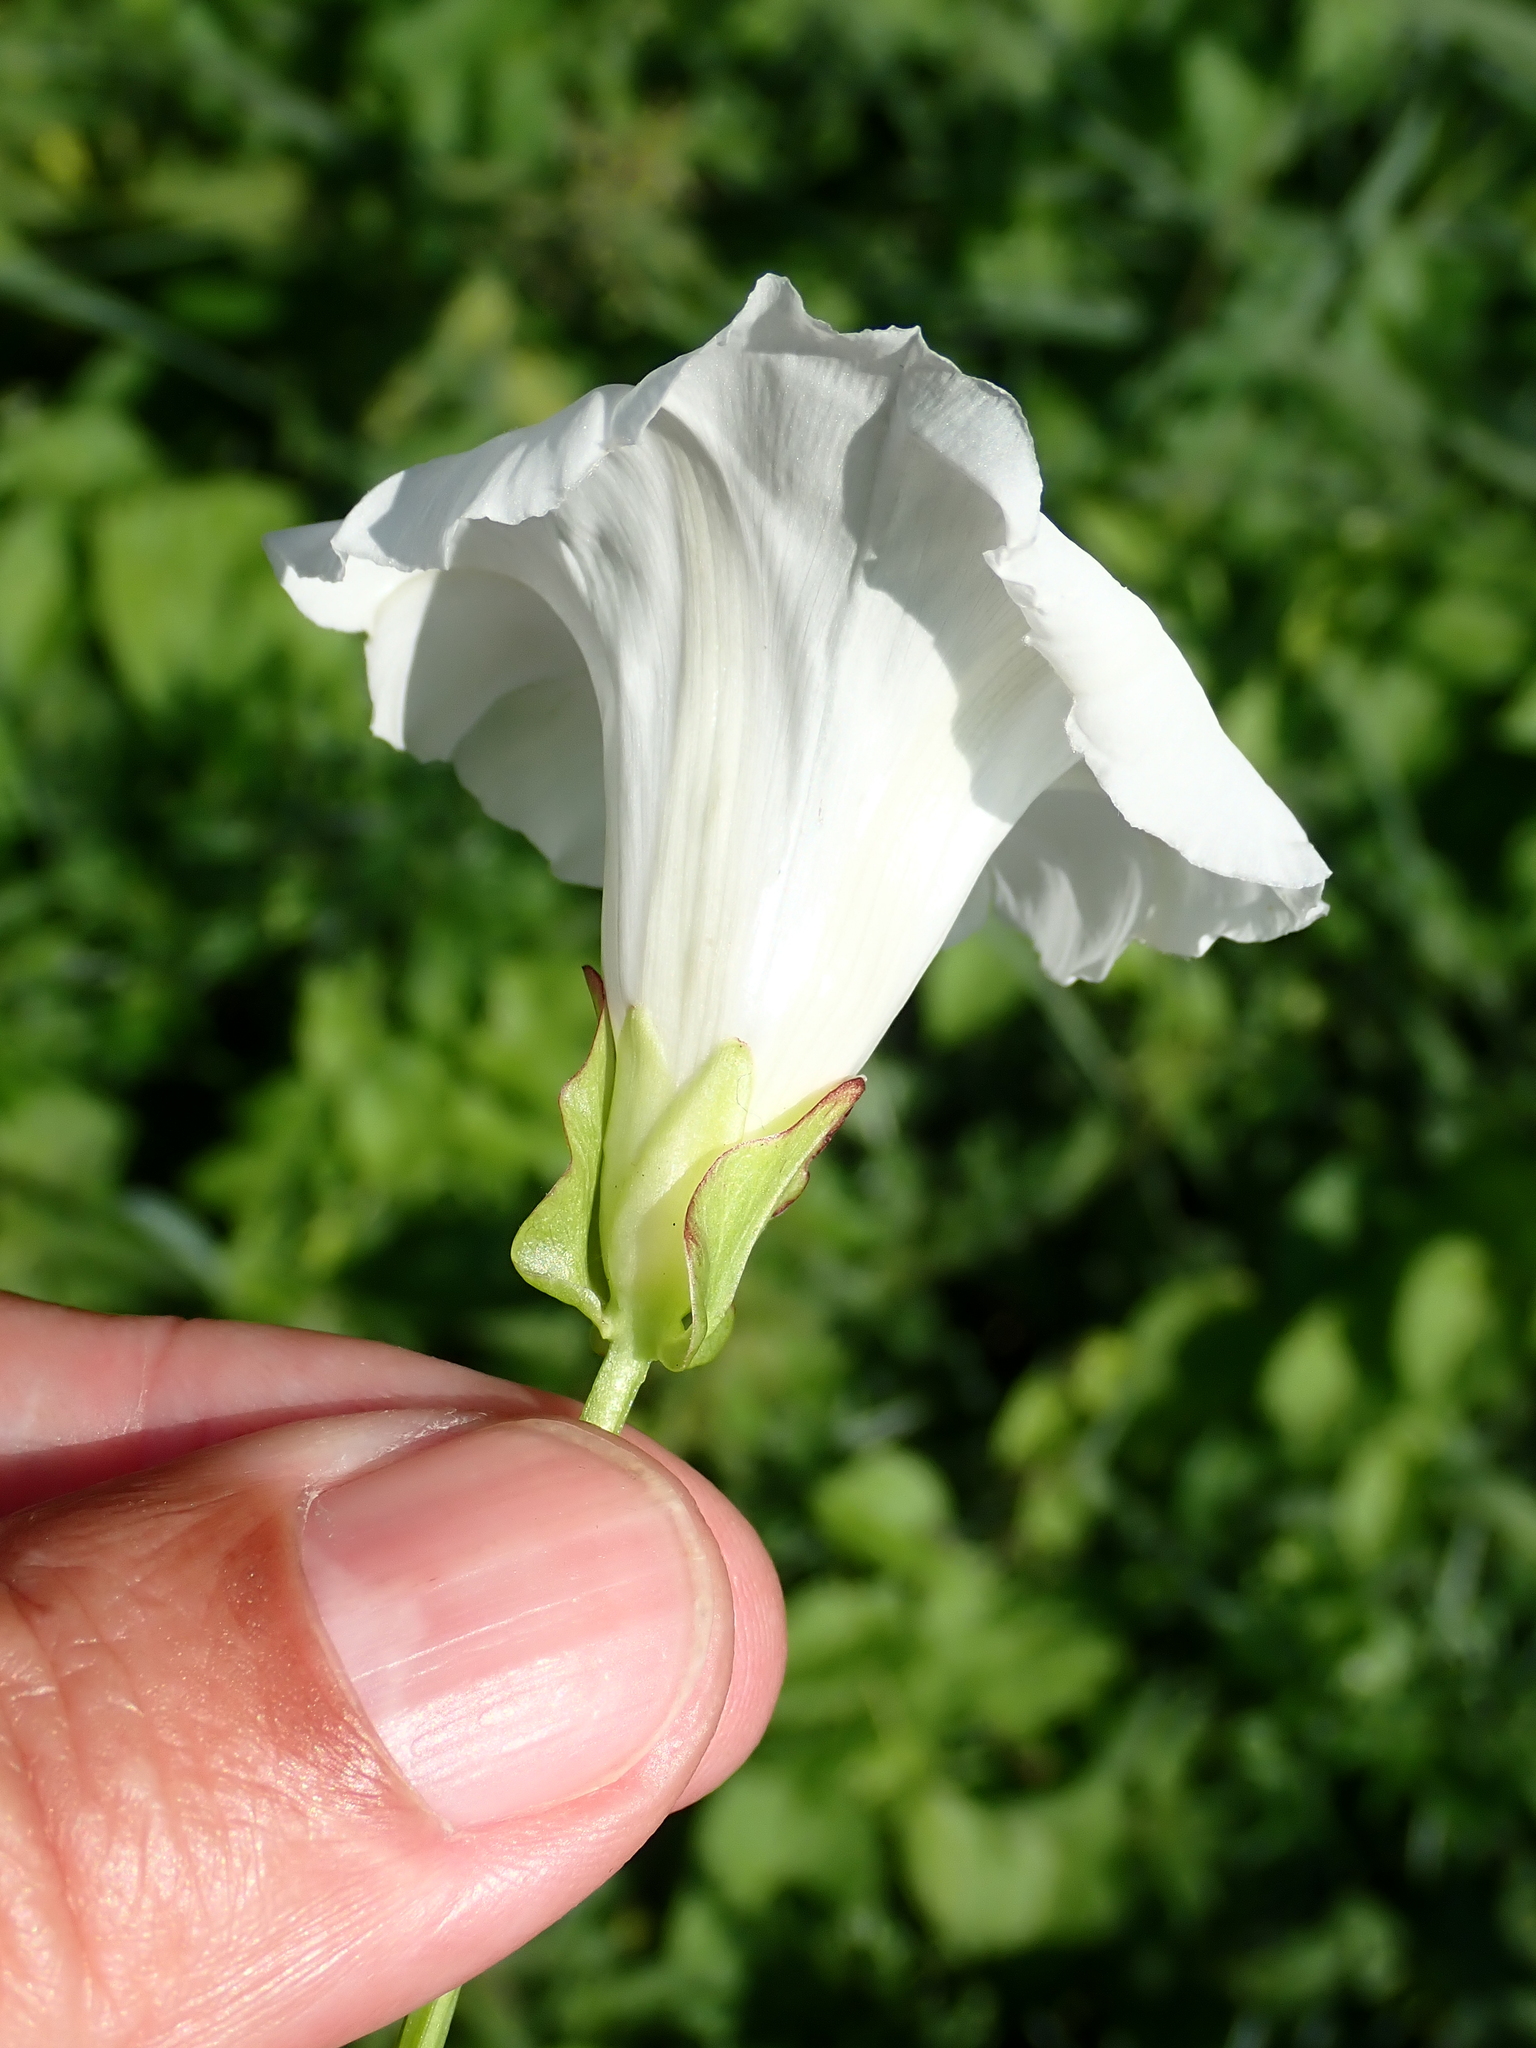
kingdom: Plantae
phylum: Tracheophyta
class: Magnoliopsida
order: Solanales
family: Convolvulaceae
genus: Calystegia
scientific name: Calystegia sepium
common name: Hedge bindweed
